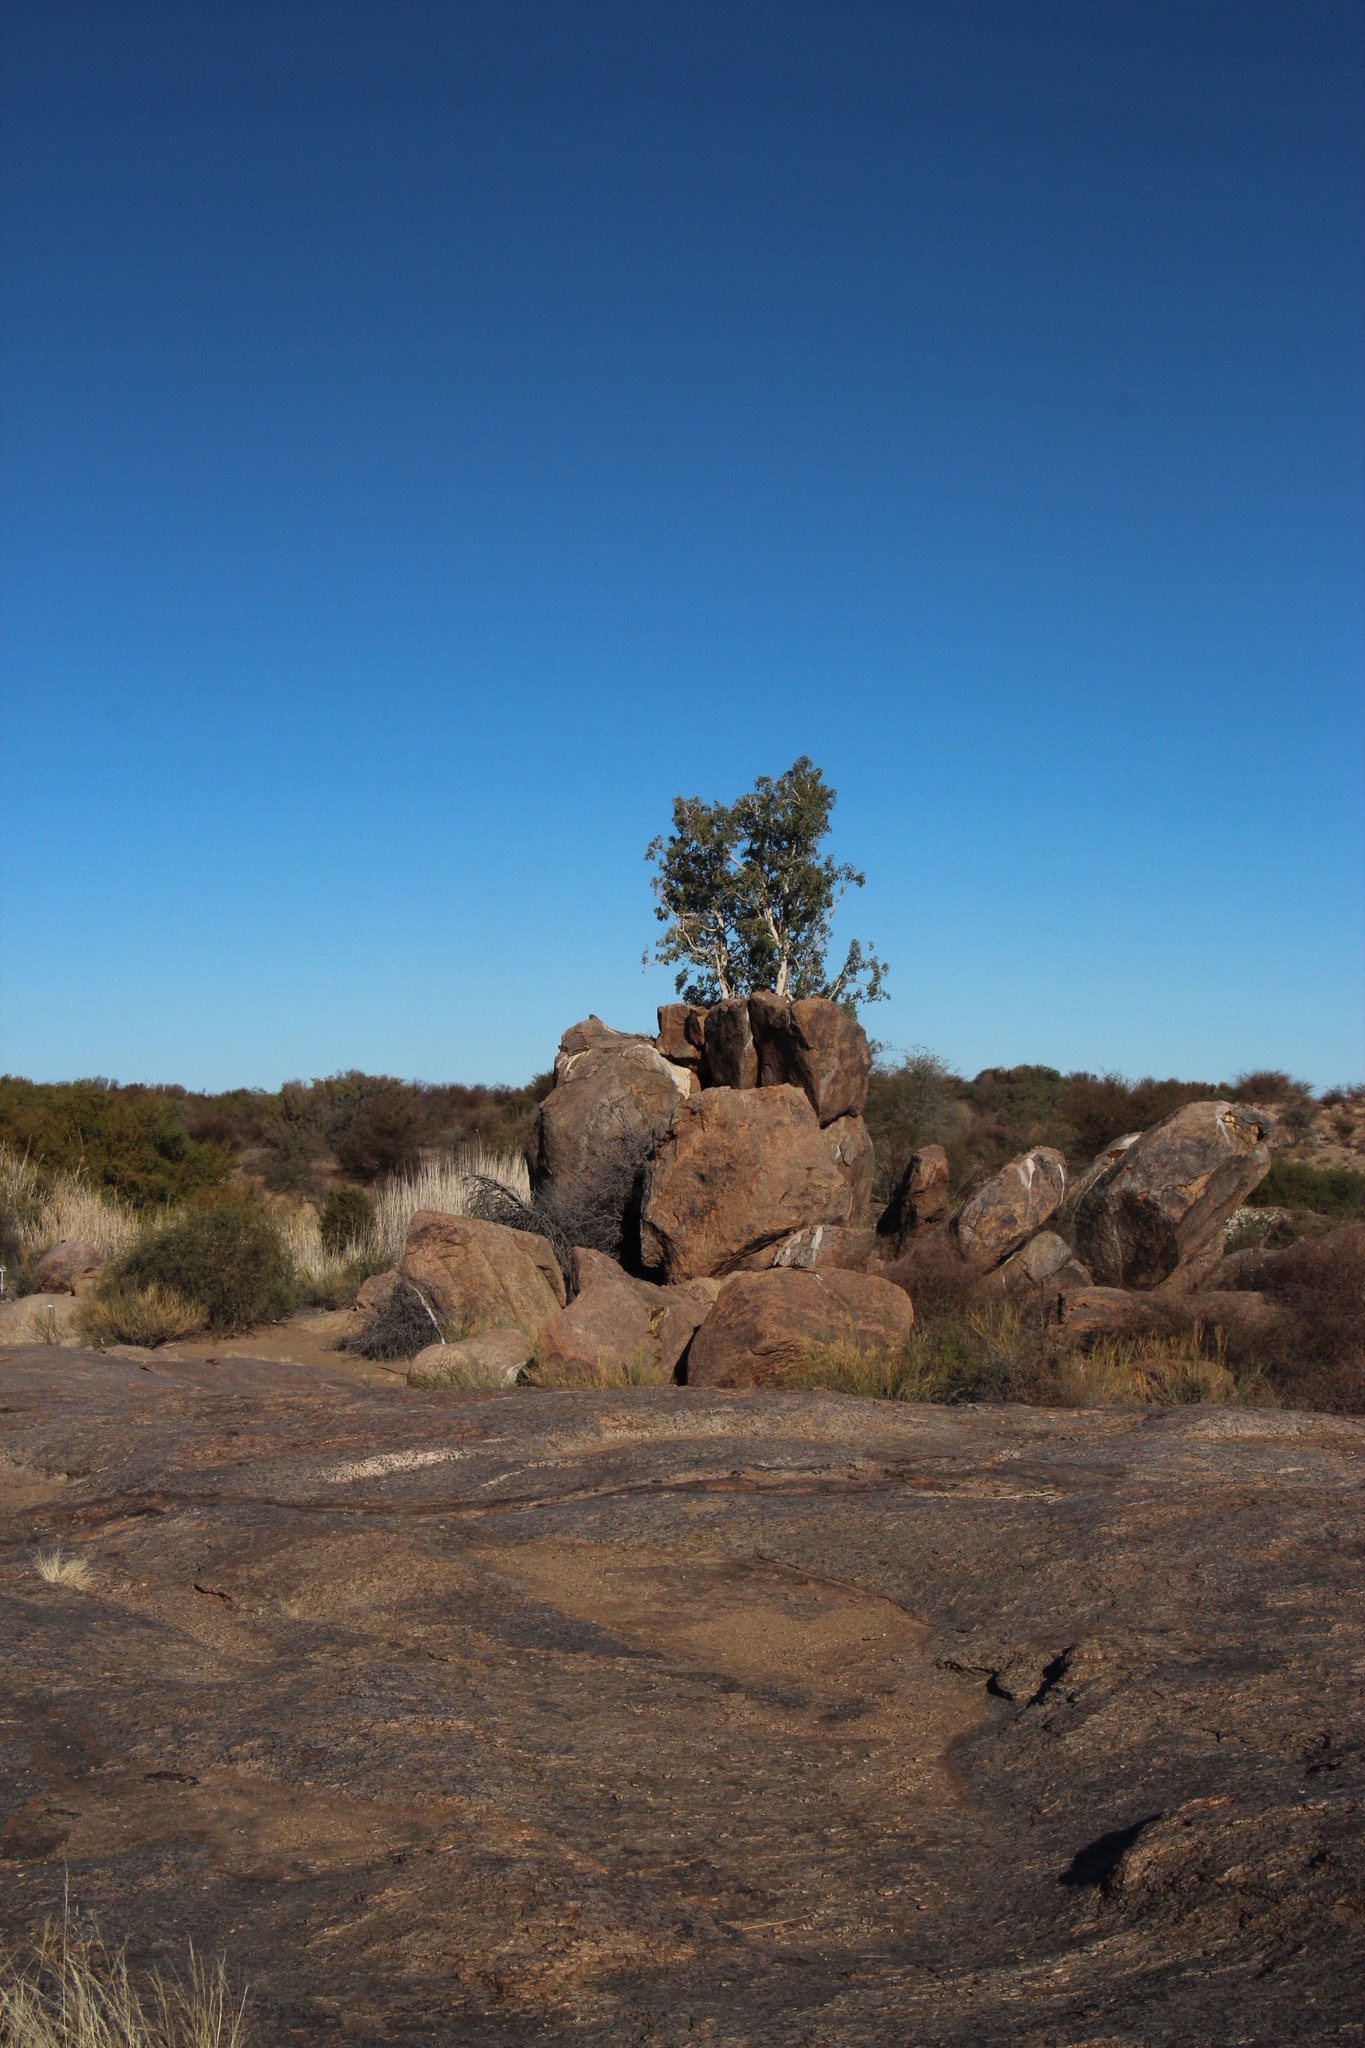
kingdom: Plantae
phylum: Tracheophyta
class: Magnoliopsida
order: Rosales
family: Moraceae
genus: Ficus
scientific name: Ficus cordata
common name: Namaqua rock fig
